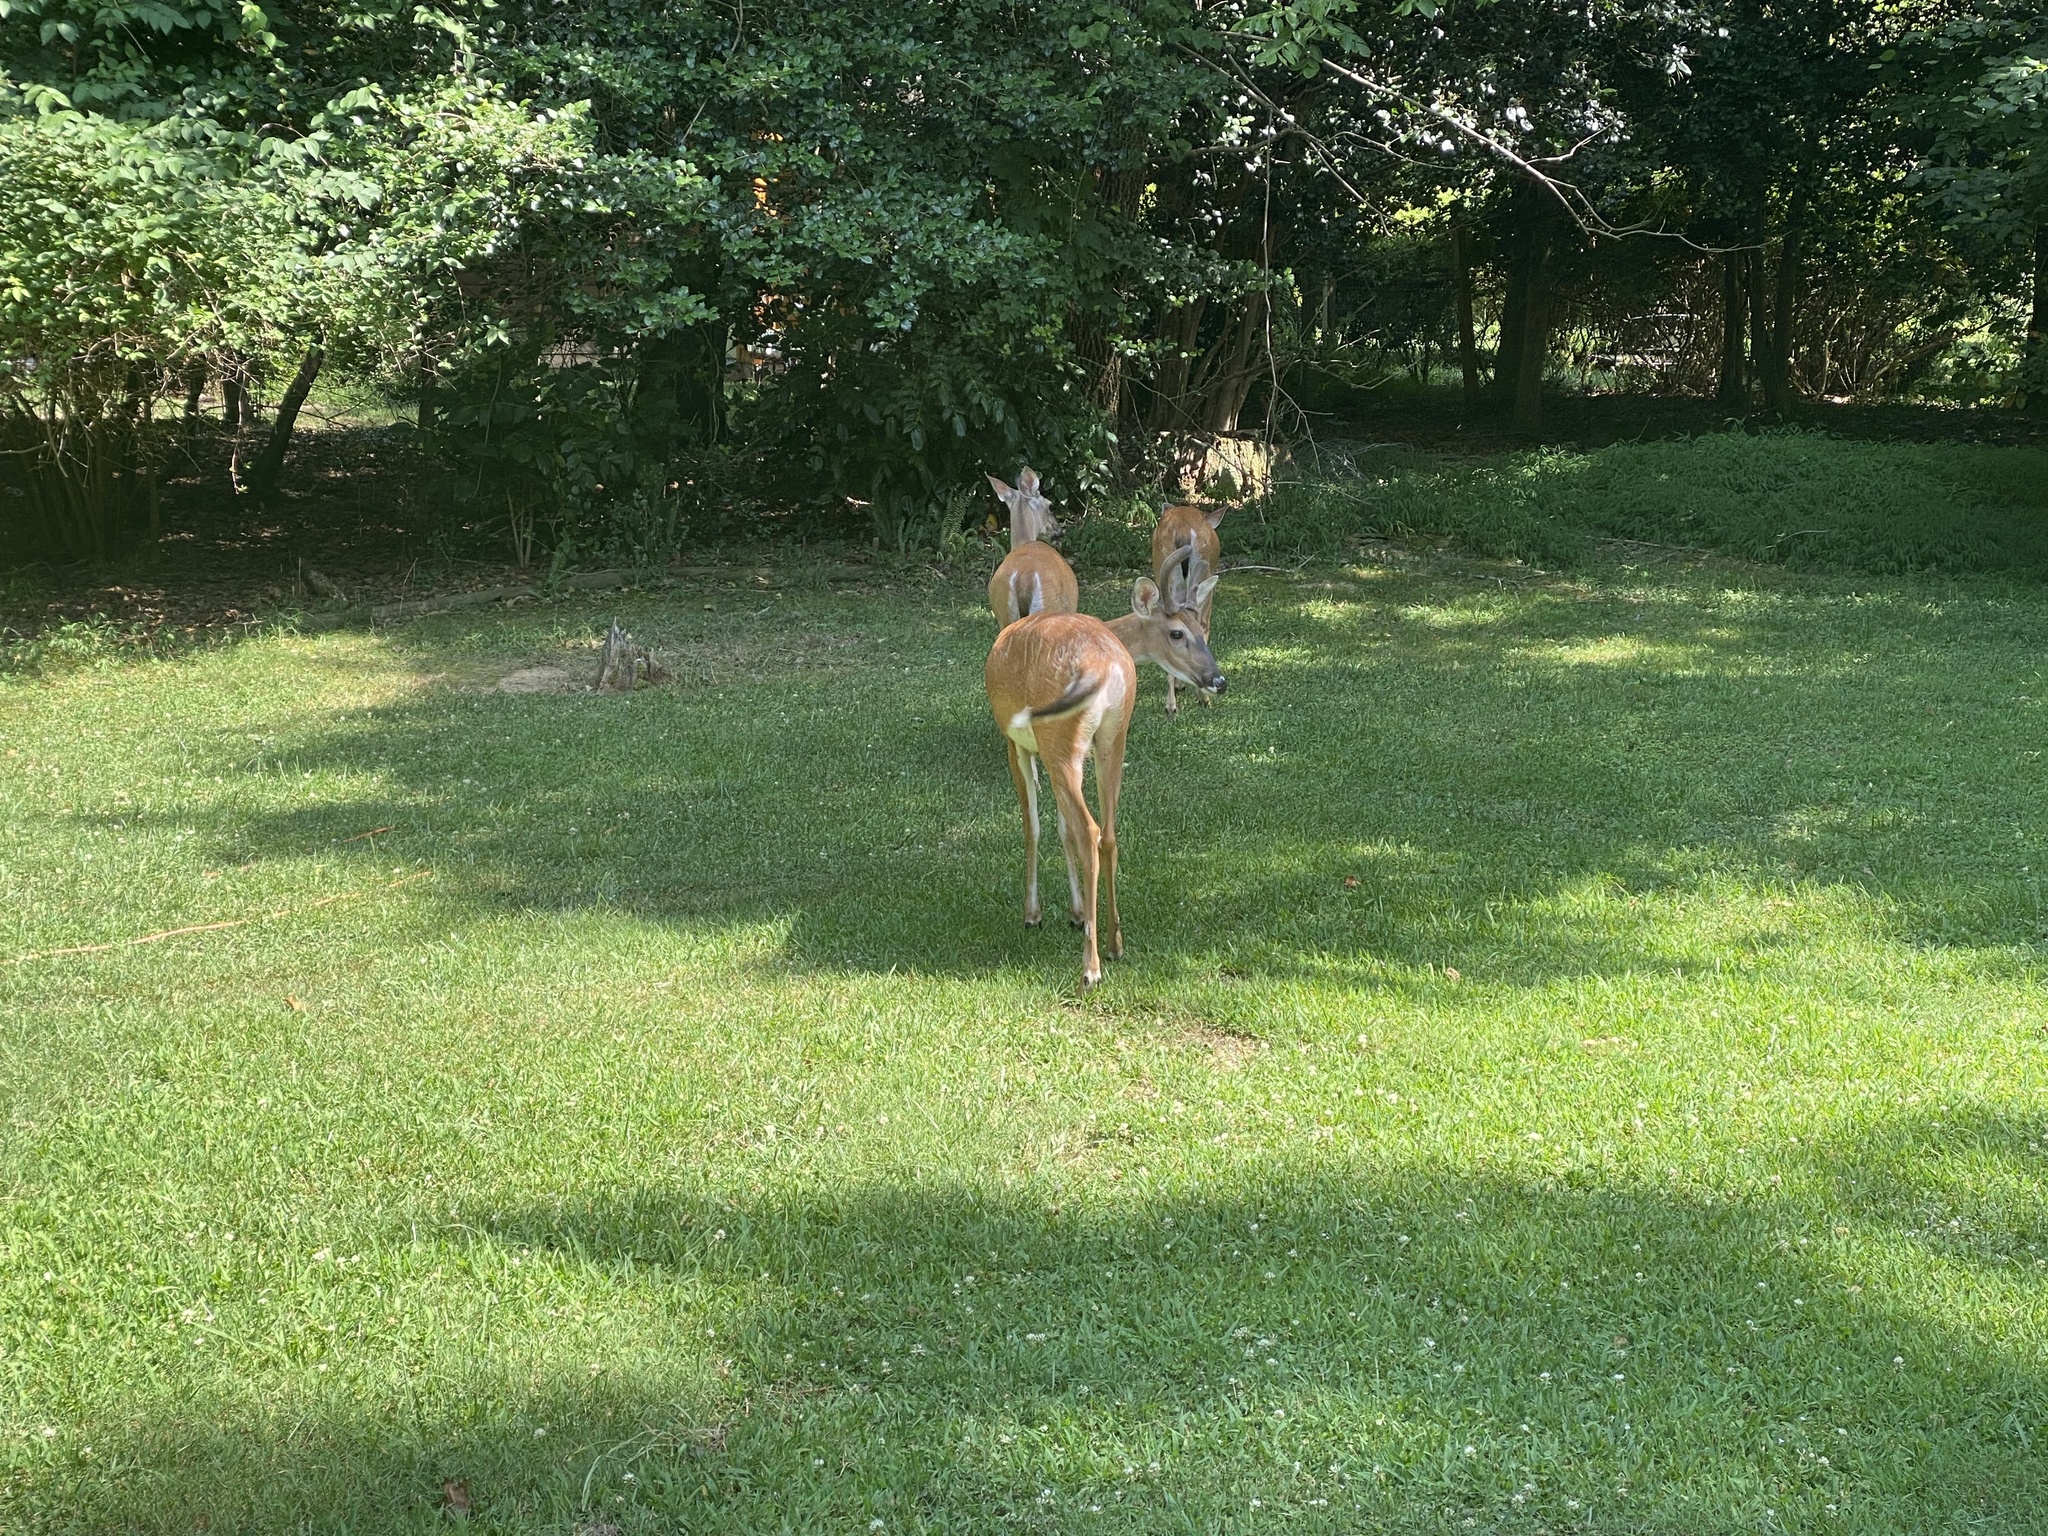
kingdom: Animalia
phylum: Chordata
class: Mammalia
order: Artiodactyla
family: Cervidae
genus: Odocoileus
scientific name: Odocoileus virginianus
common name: White-tailed deer
